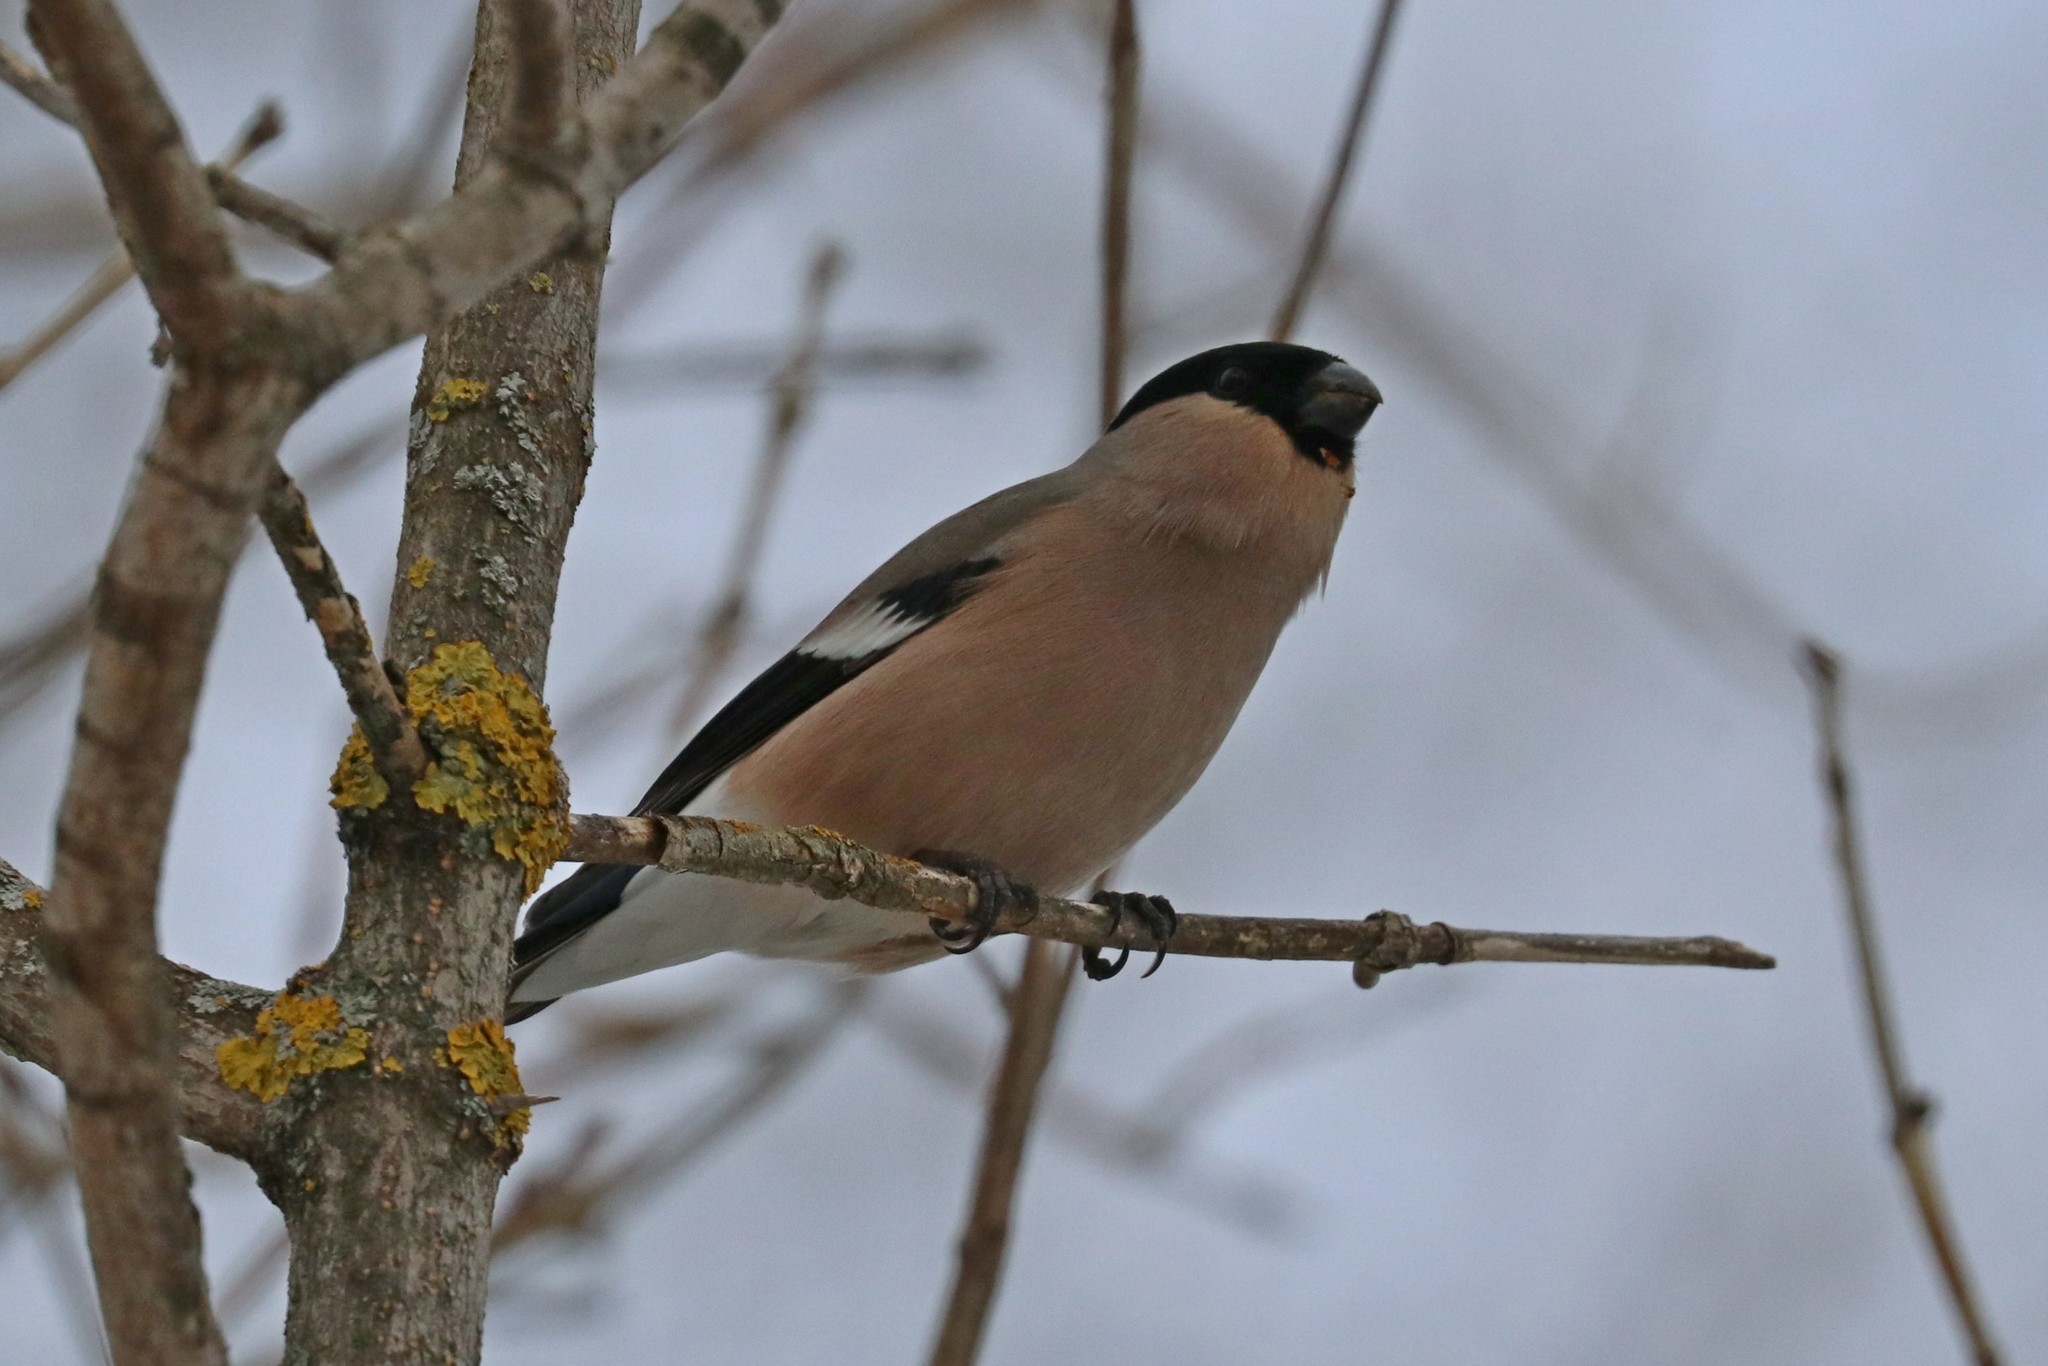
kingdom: Animalia
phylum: Chordata
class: Aves
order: Passeriformes
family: Fringillidae
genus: Pyrrhula
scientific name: Pyrrhula pyrrhula
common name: Eurasian bullfinch
